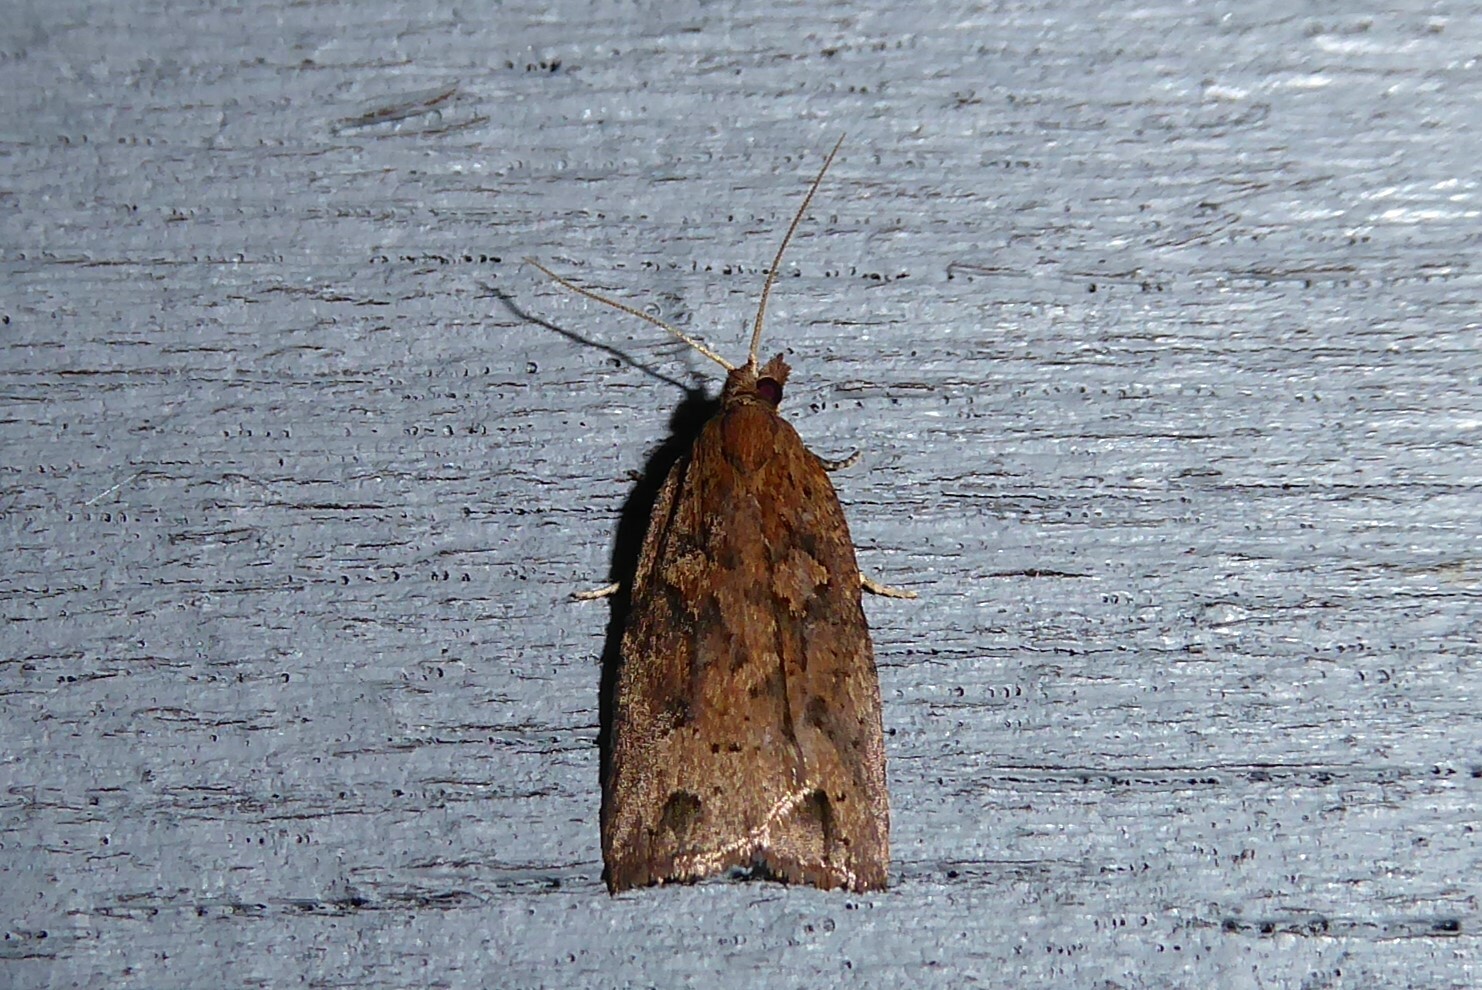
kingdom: Animalia
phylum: Arthropoda
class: Insecta
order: Lepidoptera
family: Tortricidae
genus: Planotortrix
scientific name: Planotortrix notophaea
